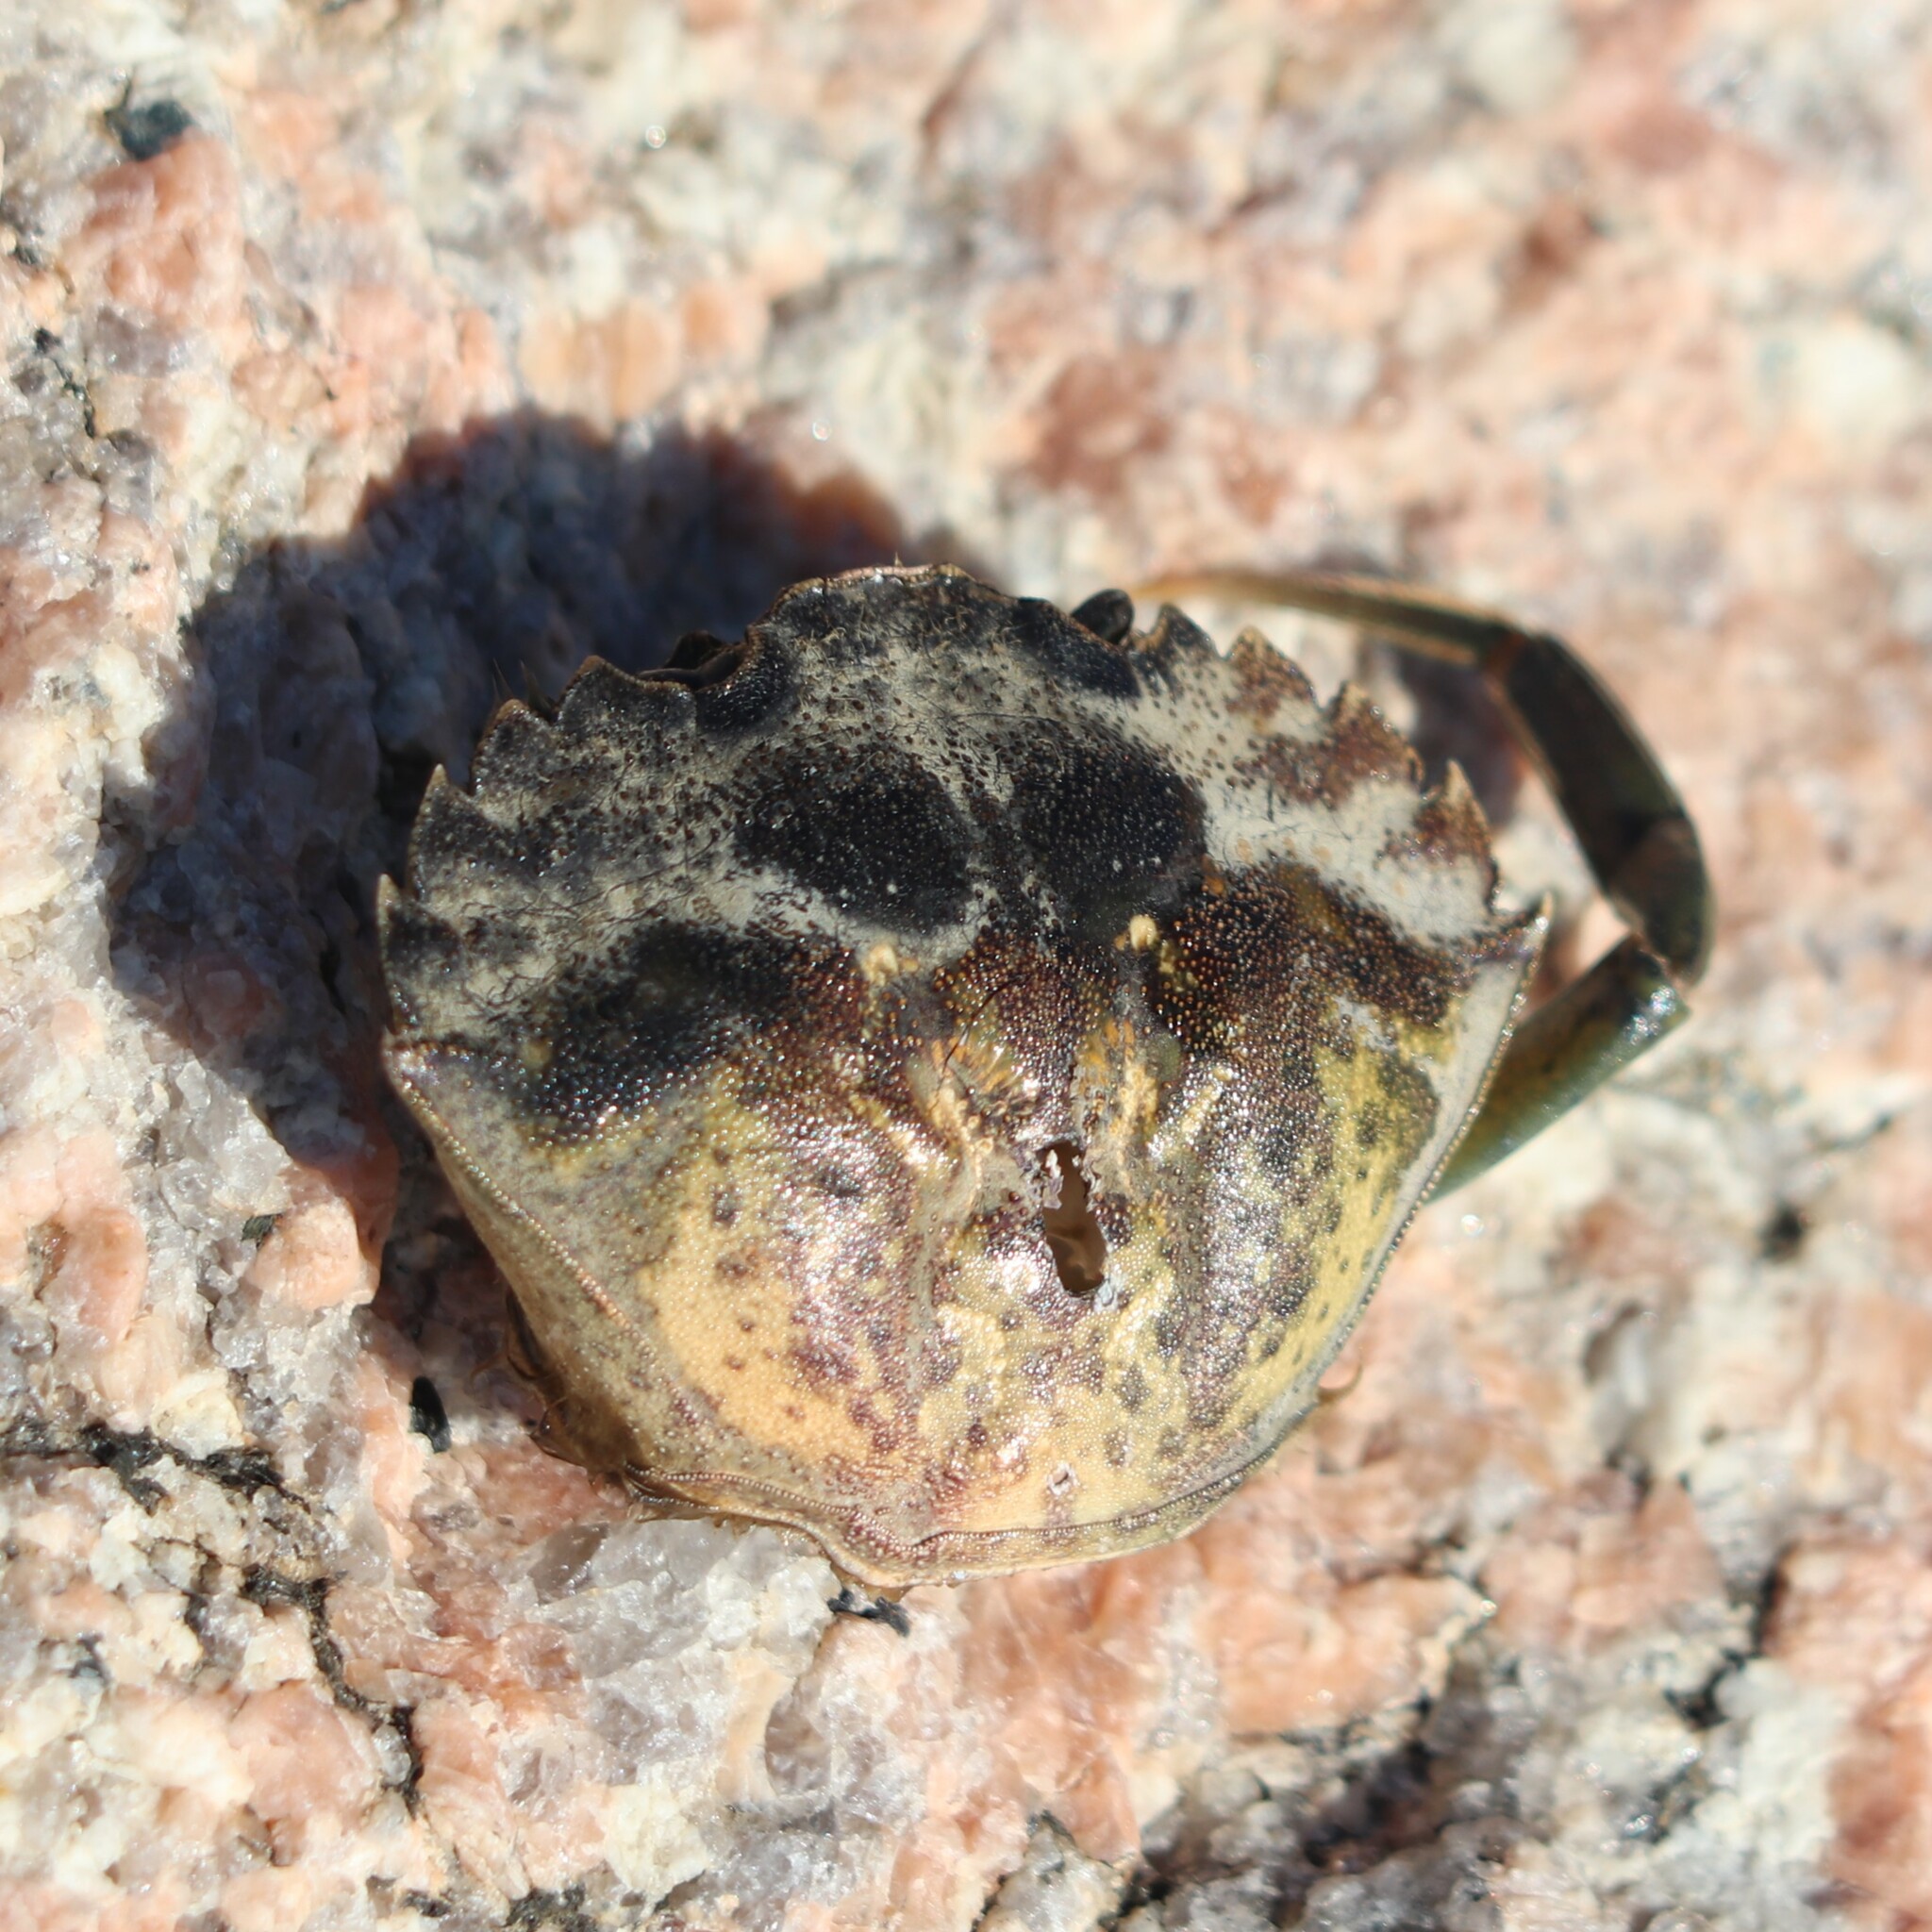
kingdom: Animalia
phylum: Arthropoda
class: Malacostraca
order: Decapoda
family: Carcinidae
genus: Carcinus
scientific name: Carcinus maenas
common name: European green crab
